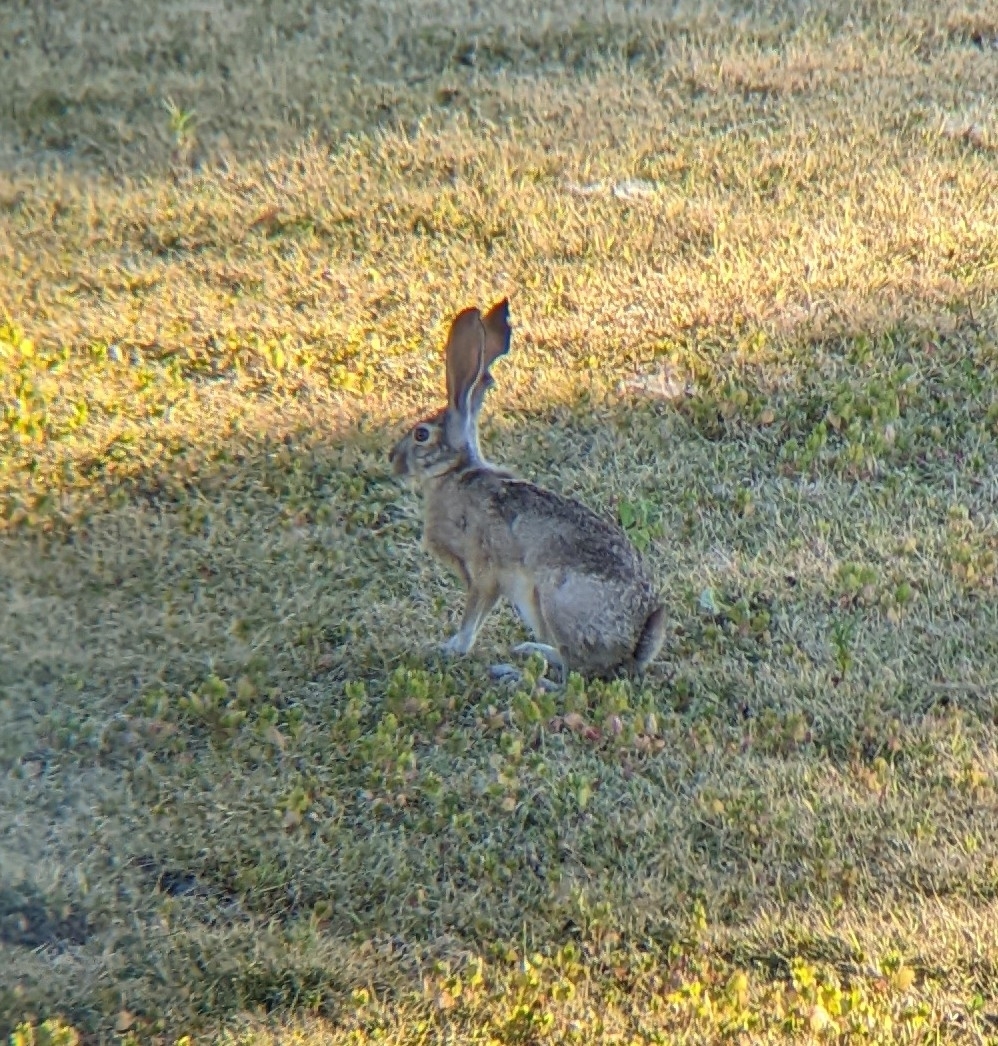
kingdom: Animalia
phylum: Chordata
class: Mammalia
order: Lagomorpha
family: Leporidae
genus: Lepus
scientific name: Lepus californicus
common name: Black-tailed jackrabbit
